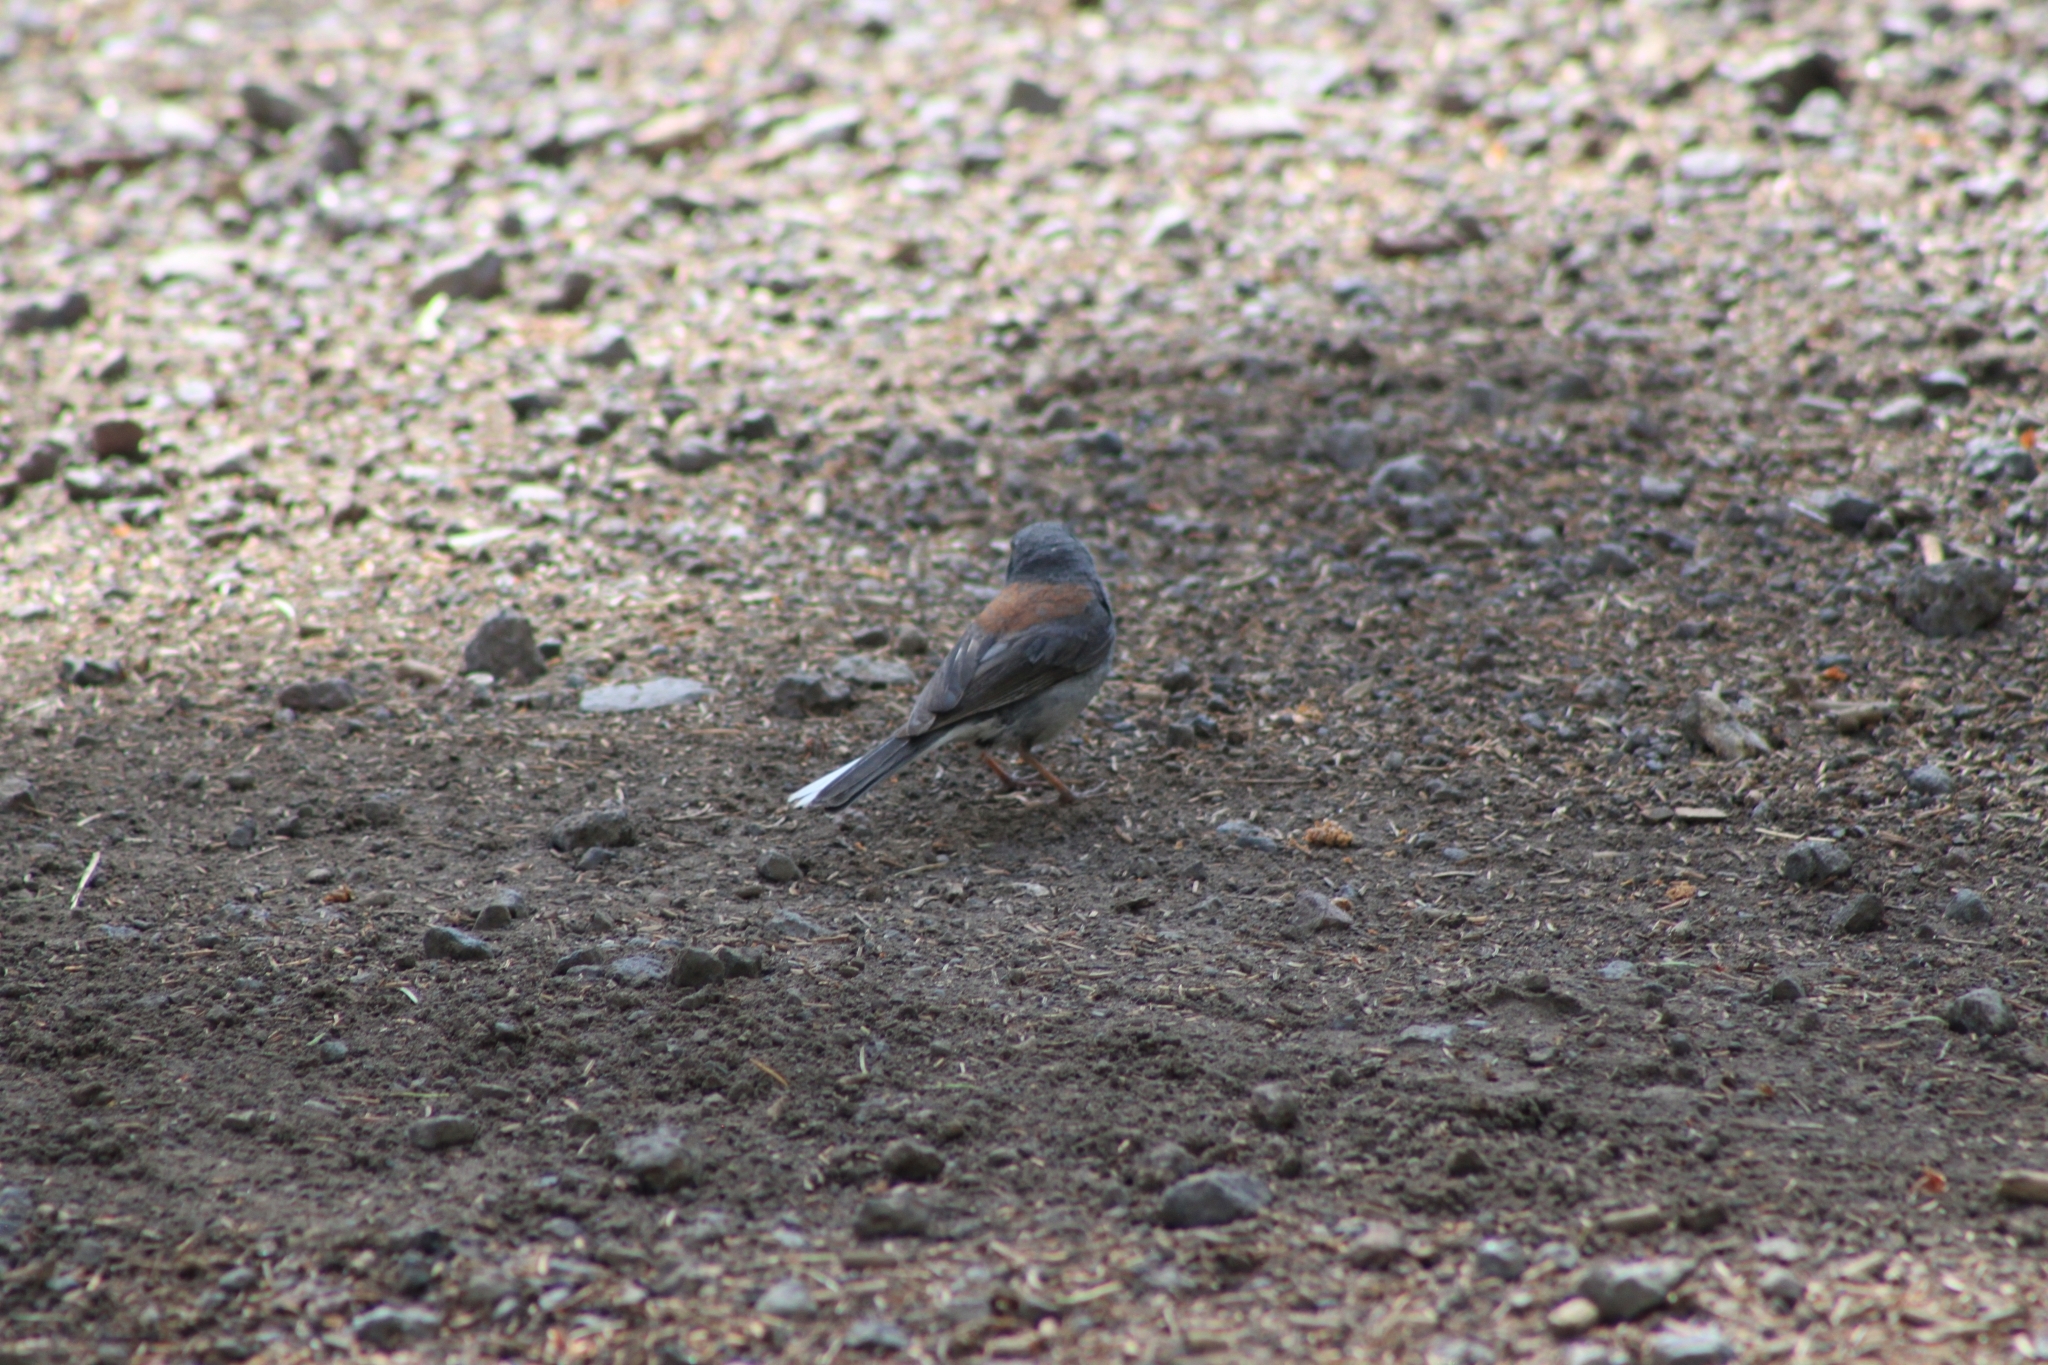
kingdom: Animalia
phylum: Chordata
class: Aves
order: Passeriformes
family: Passerellidae
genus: Junco
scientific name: Junco hyemalis
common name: Dark-eyed junco
